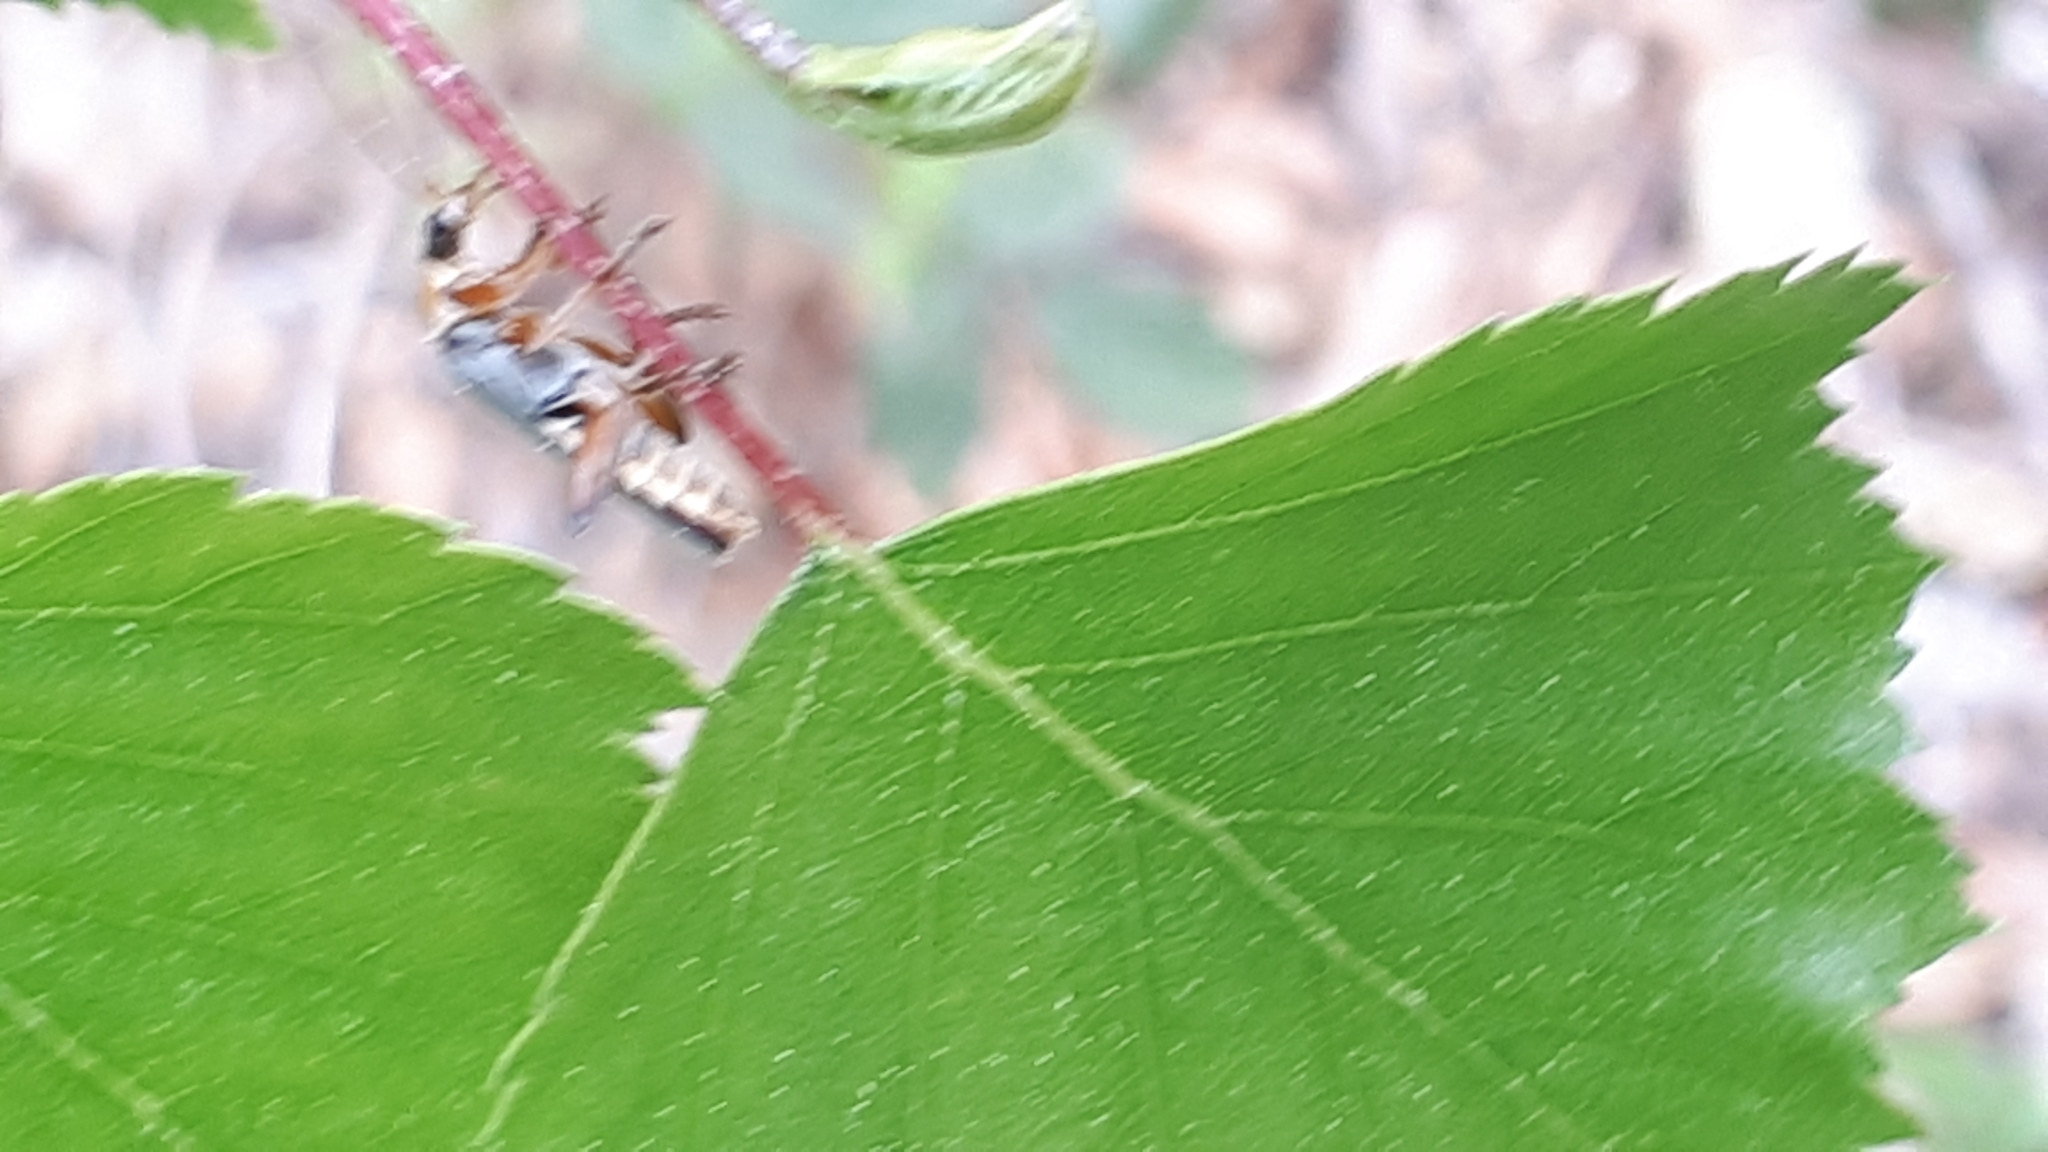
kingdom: Animalia
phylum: Arthropoda
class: Insecta
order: Coleoptera
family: Cantharidae
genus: Cantharis
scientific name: Cantharis nigricans
